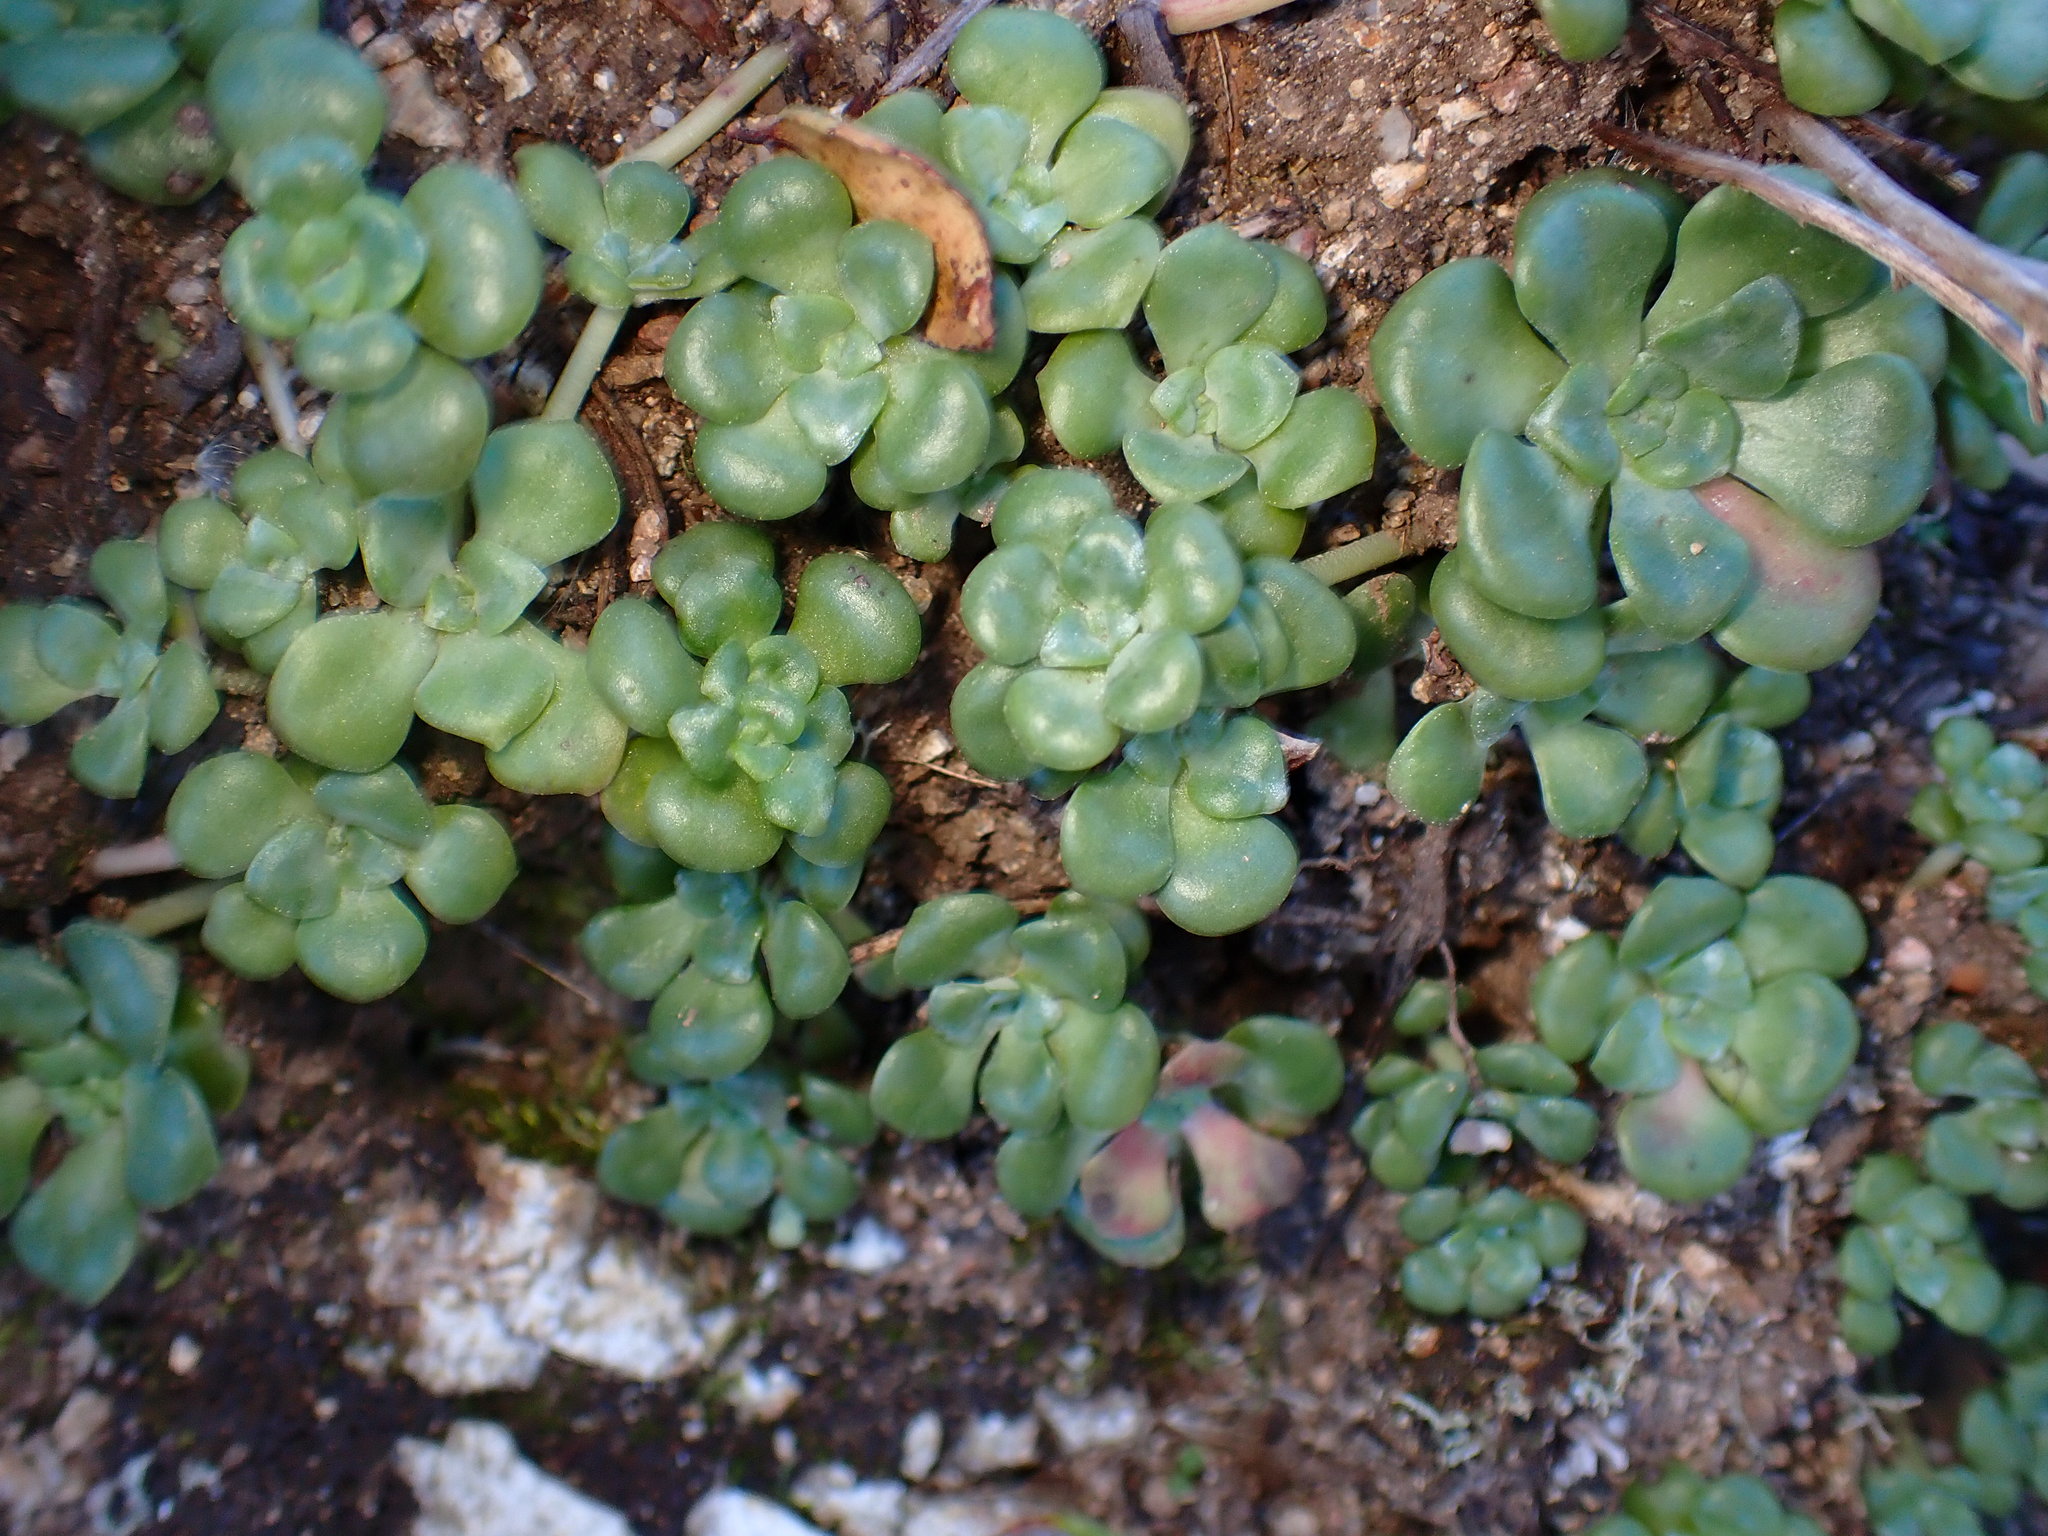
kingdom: Plantae
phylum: Tracheophyta
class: Magnoliopsida
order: Saxifragales
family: Crassulaceae
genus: Sedum
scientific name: Sedum spathulifolium
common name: Colorado stonecrop
